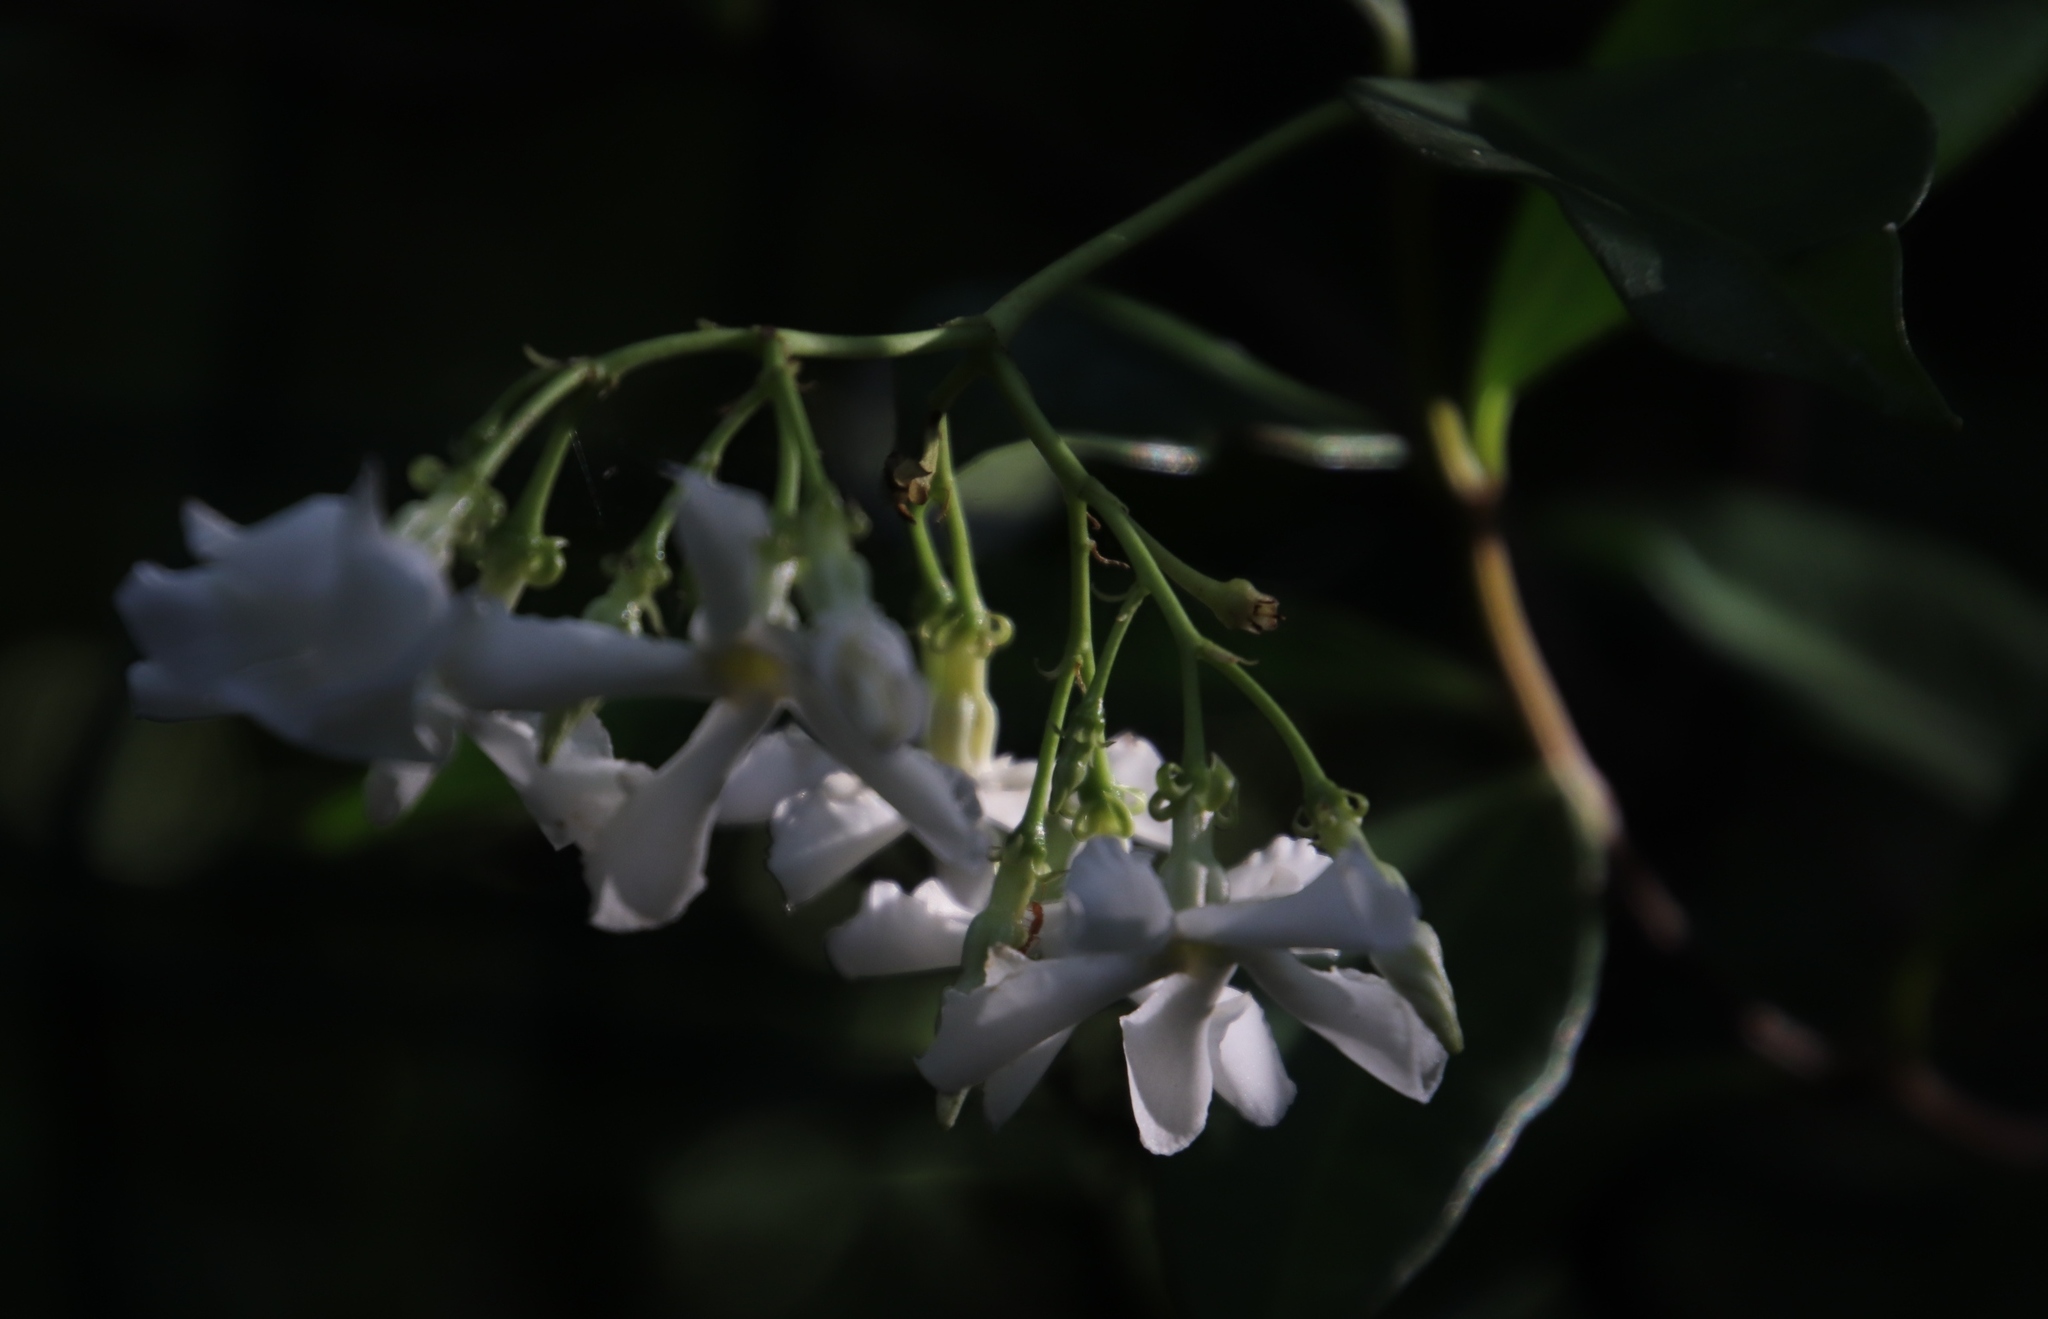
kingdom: Plantae
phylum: Tracheophyta
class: Magnoliopsida
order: Gentianales
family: Apocynaceae
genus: Trachelospermum
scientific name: Trachelospermum jasminoides
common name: Confederate jasmine
